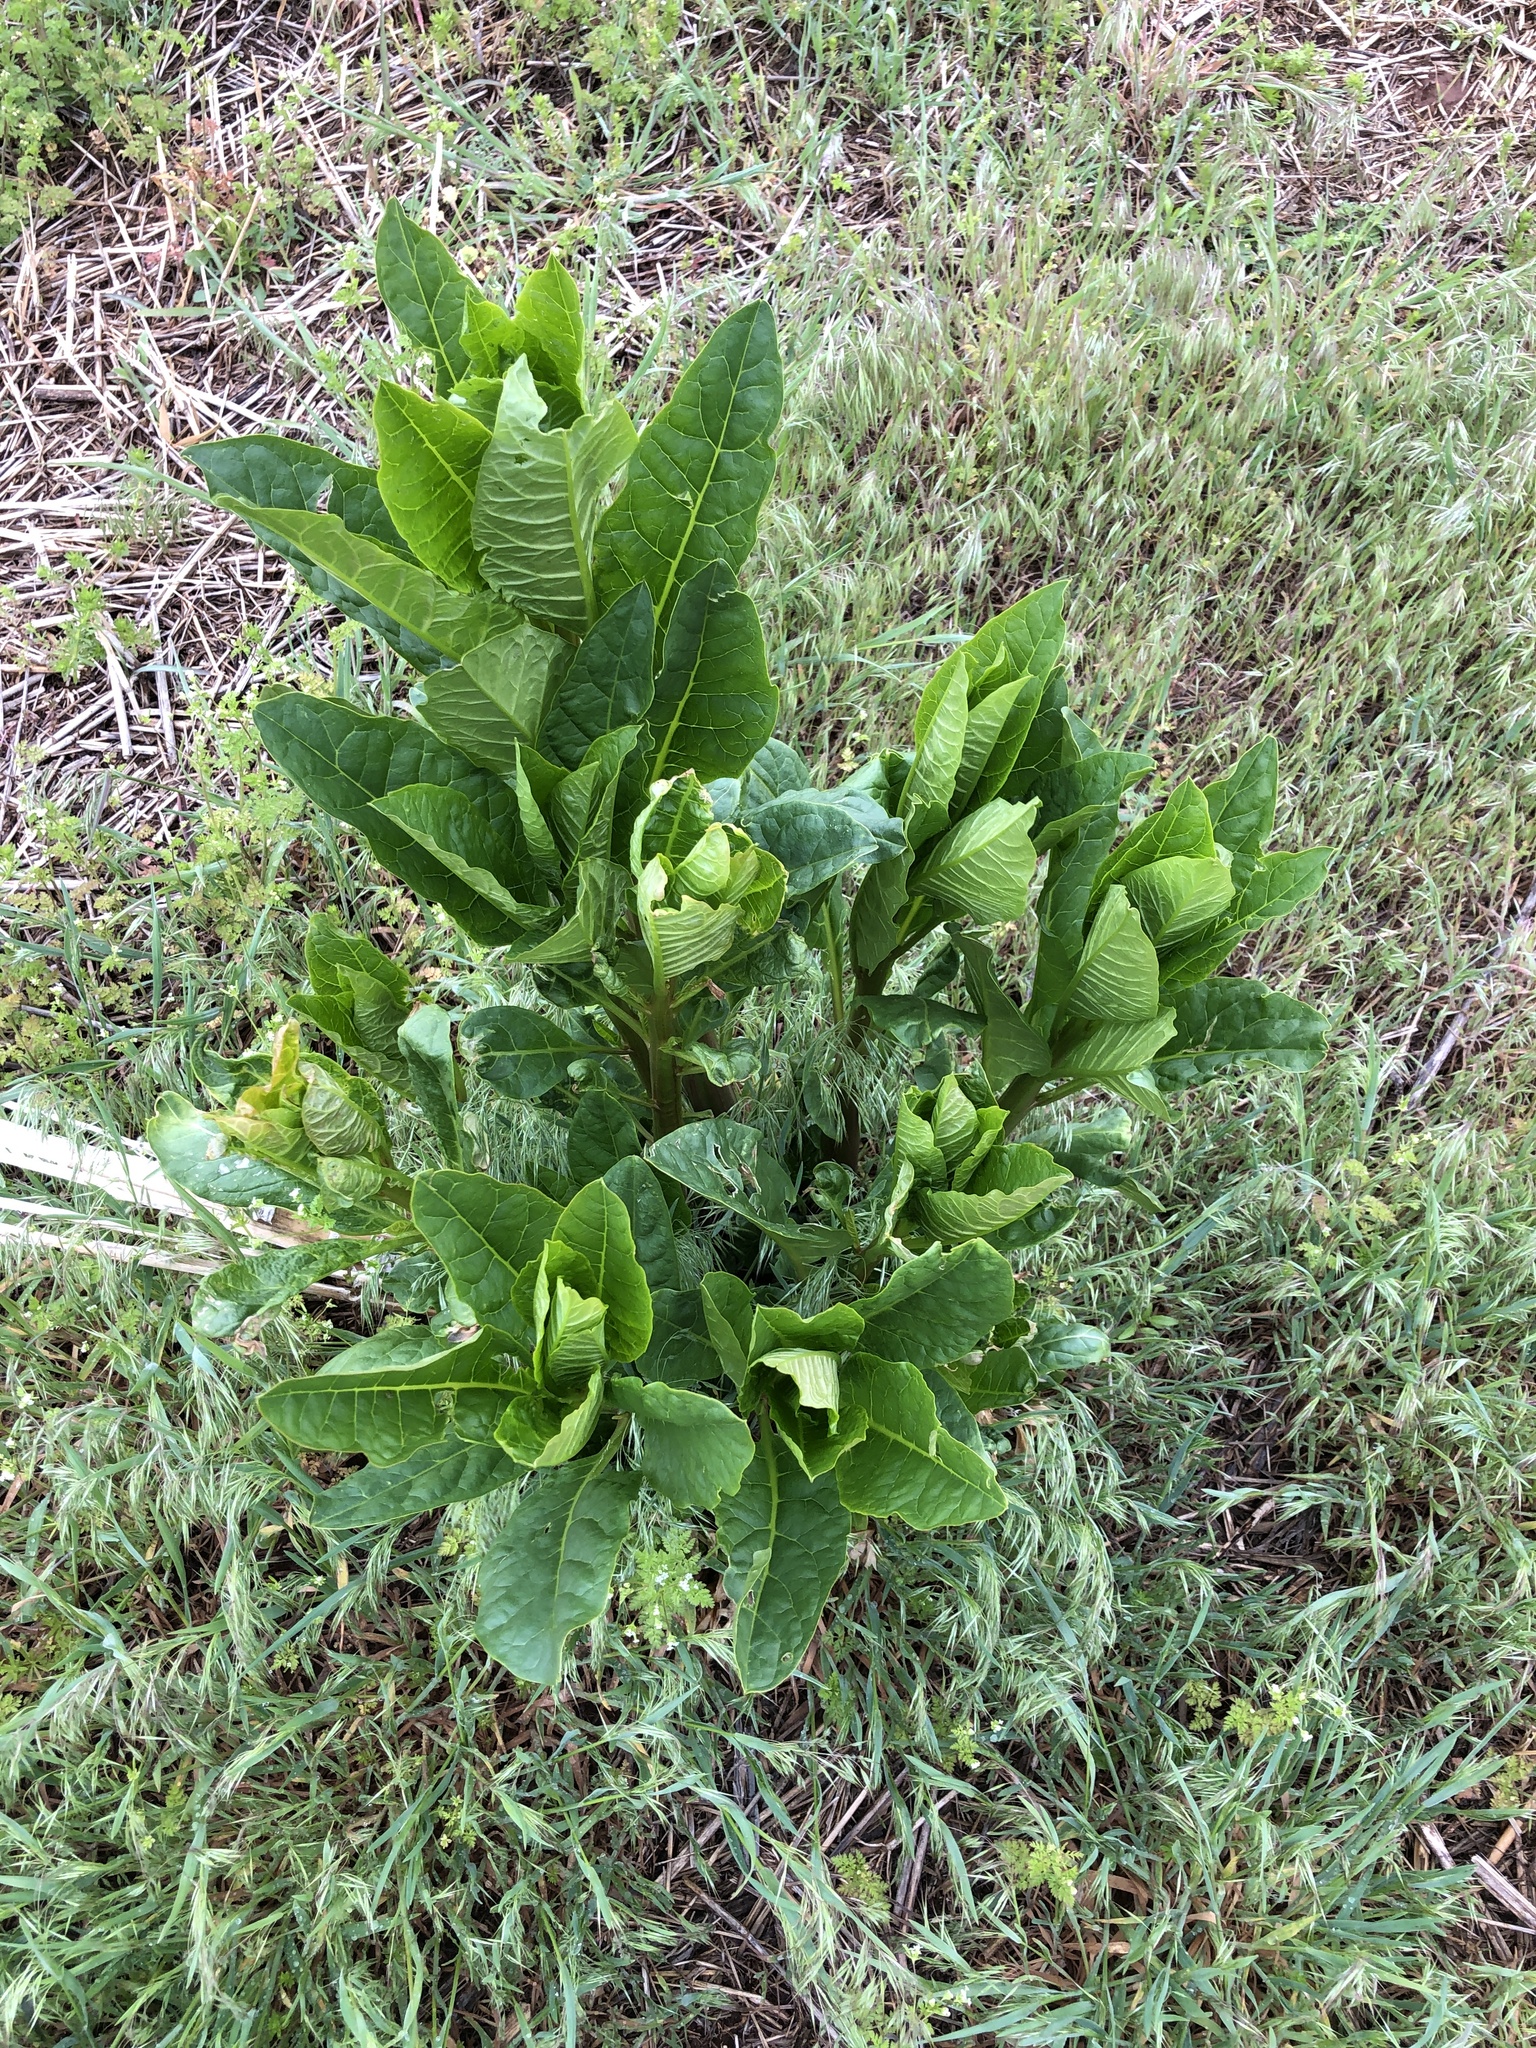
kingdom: Plantae
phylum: Tracheophyta
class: Magnoliopsida
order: Caryophyllales
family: Phytolaccaceae
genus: Phytolacca
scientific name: Phytolacca americana
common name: American pokeweed
